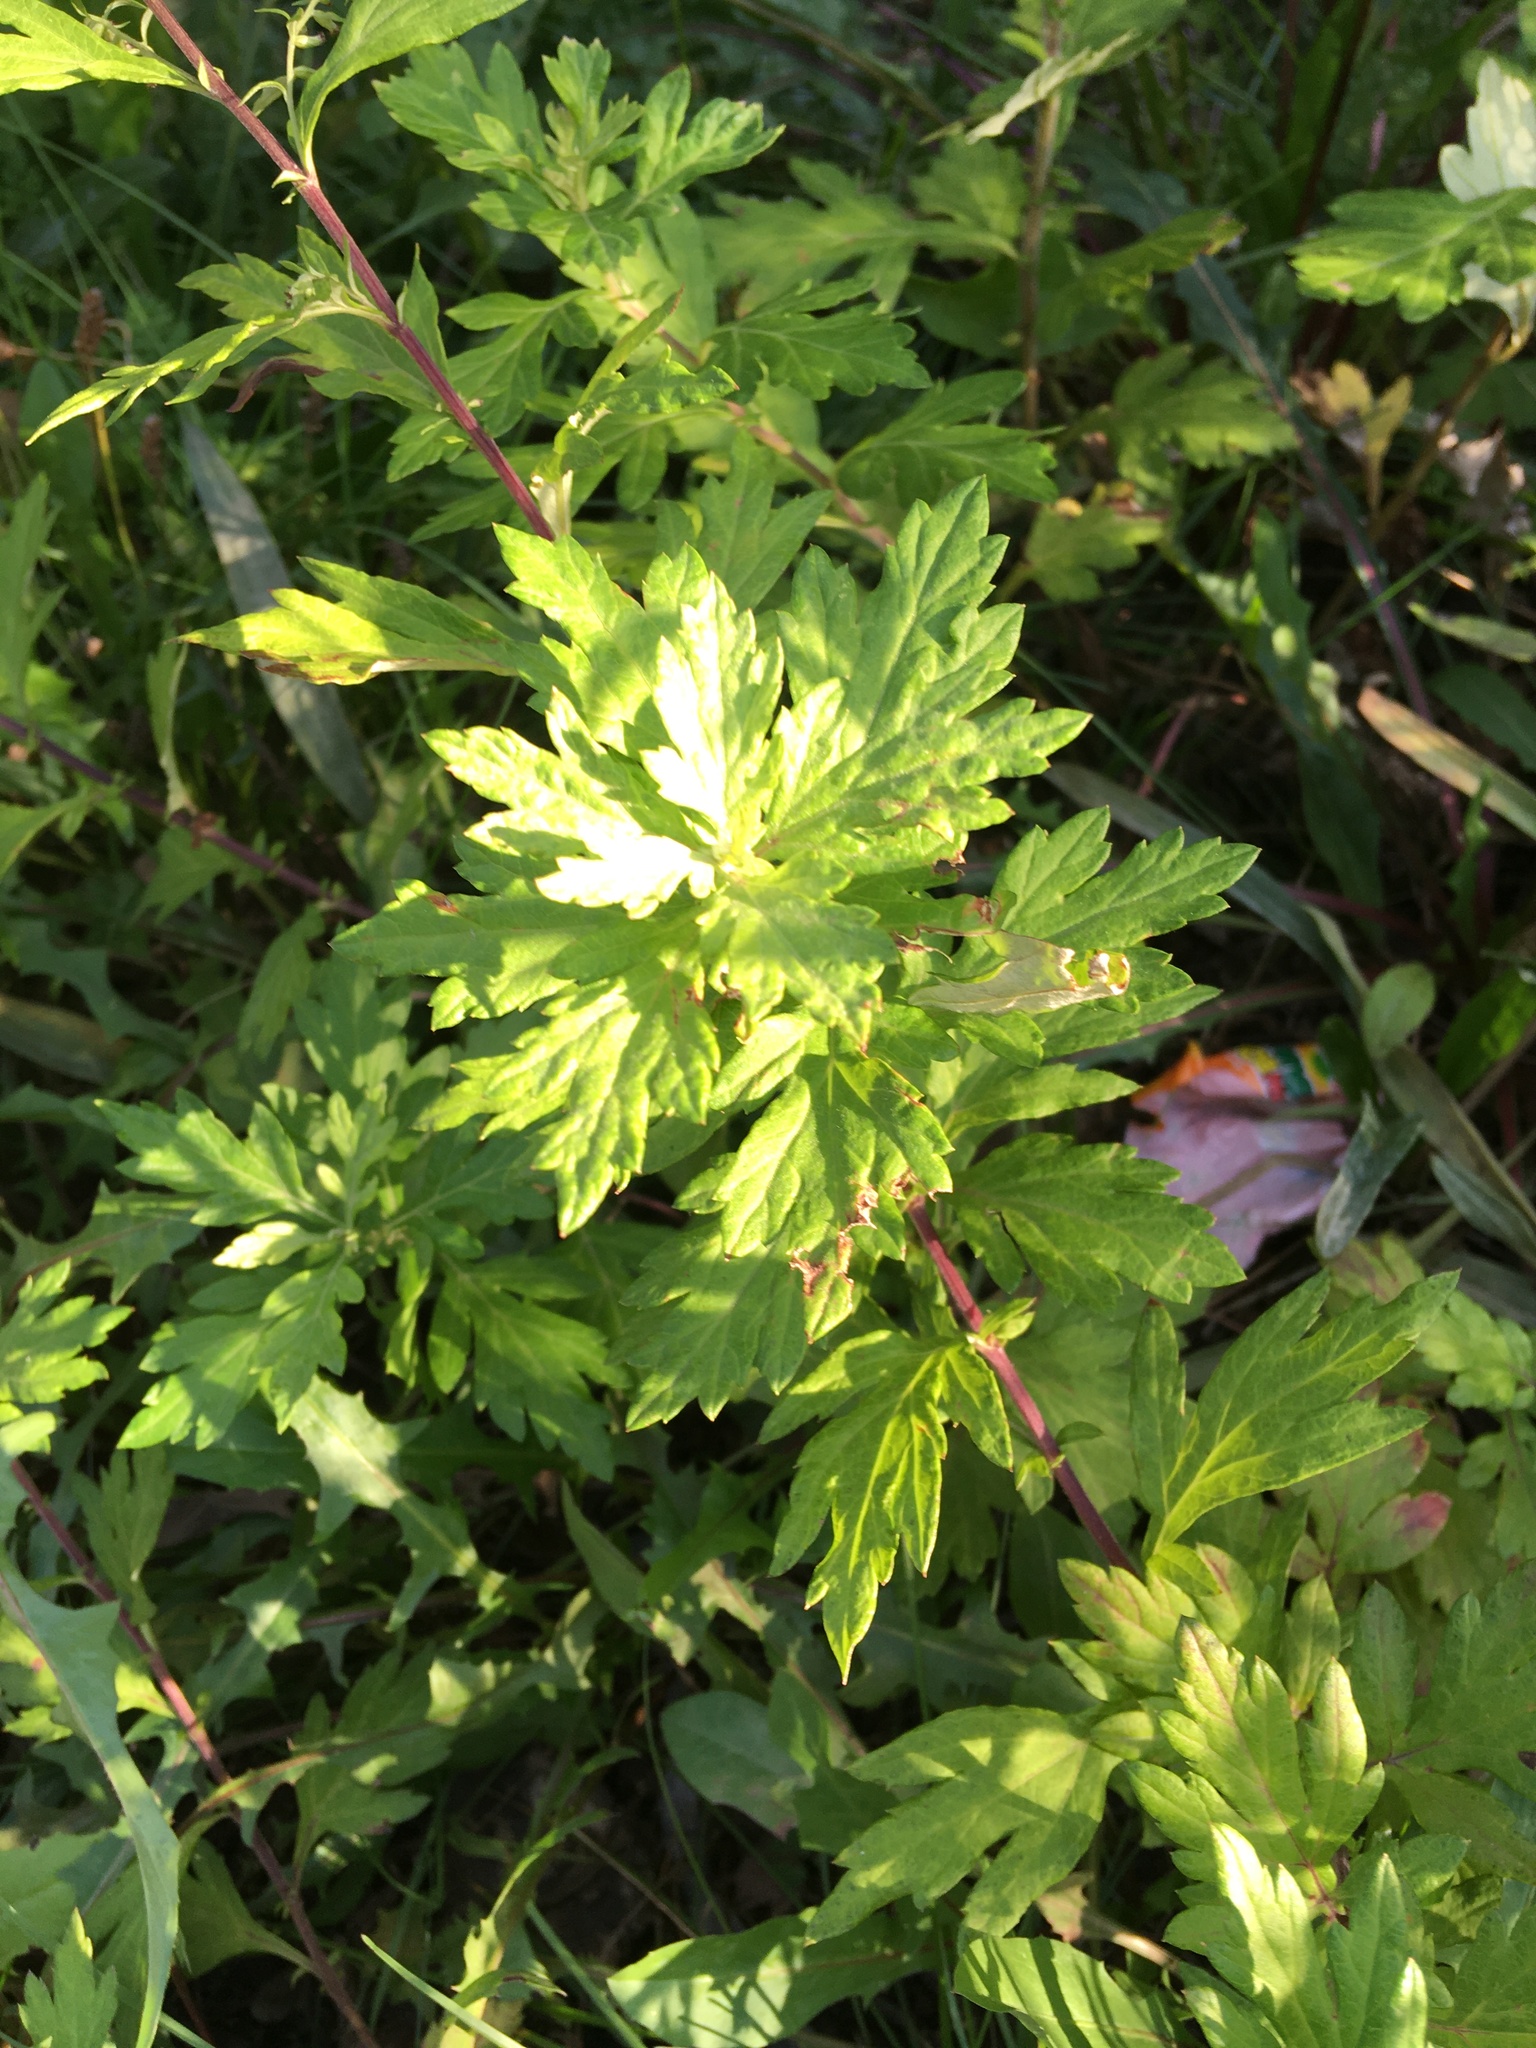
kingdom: Plantae
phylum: Tracheophyta
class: Magnoliopsida
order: Asterales
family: Asteraceae
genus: Artemisia
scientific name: Artemisia vulgaris
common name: Mugwort
